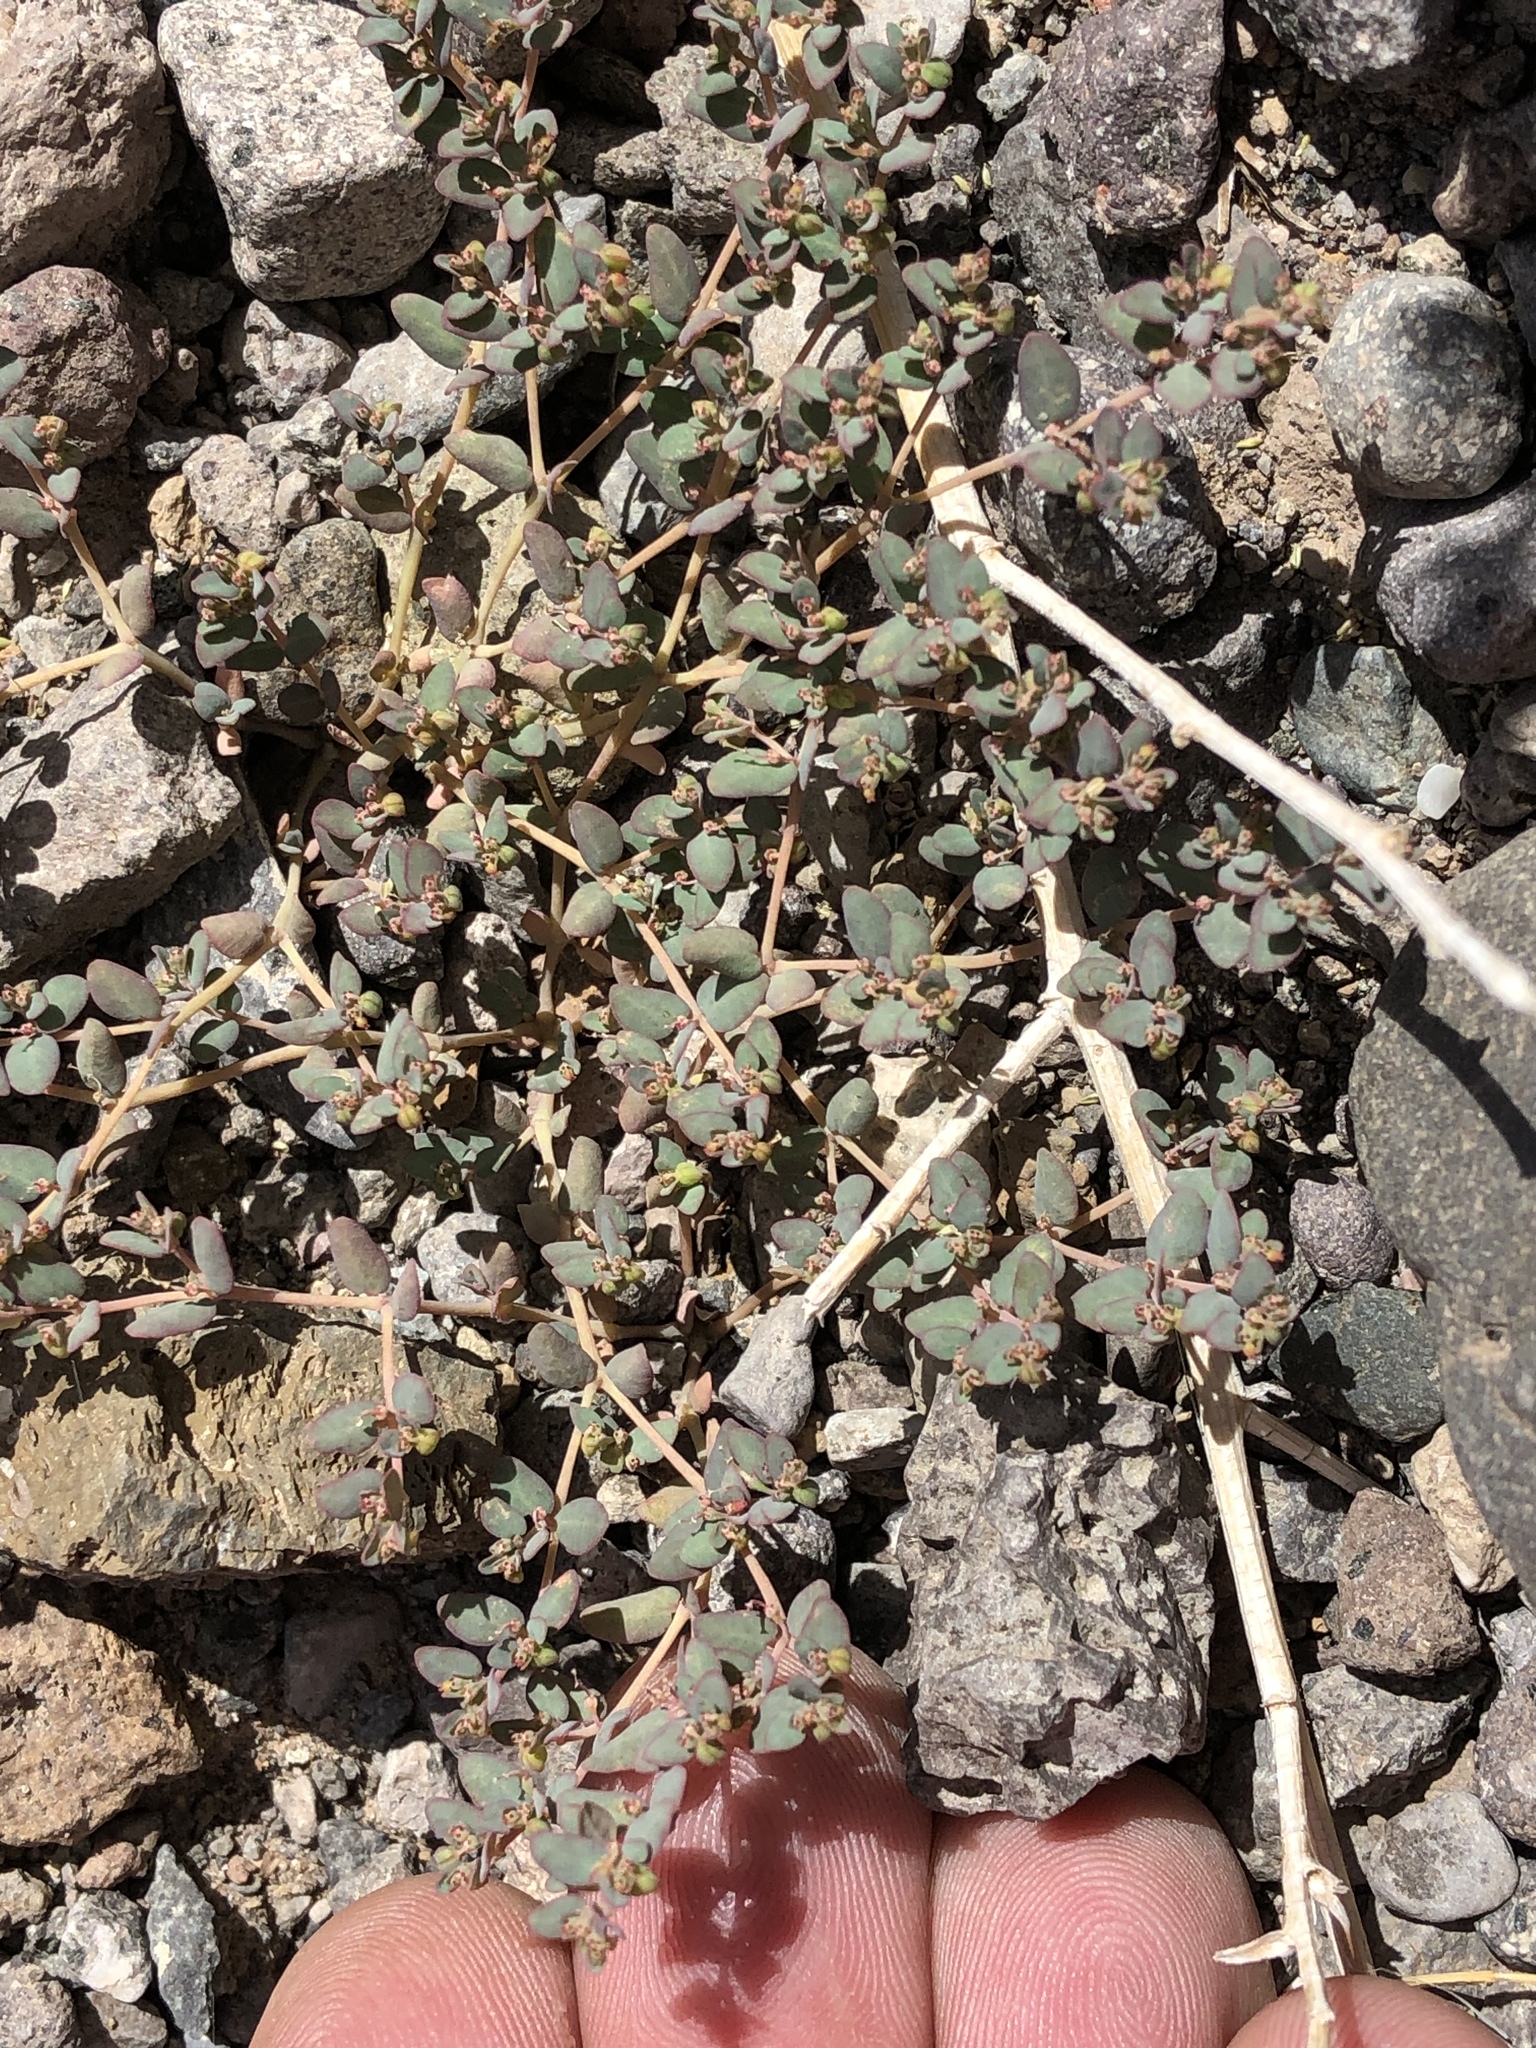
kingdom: Plantae
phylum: Tracheophyta
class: Magnoliopsida
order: Malpighiales
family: Euphorbiaceae
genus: Euphorbia
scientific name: Euphorbia micromera
